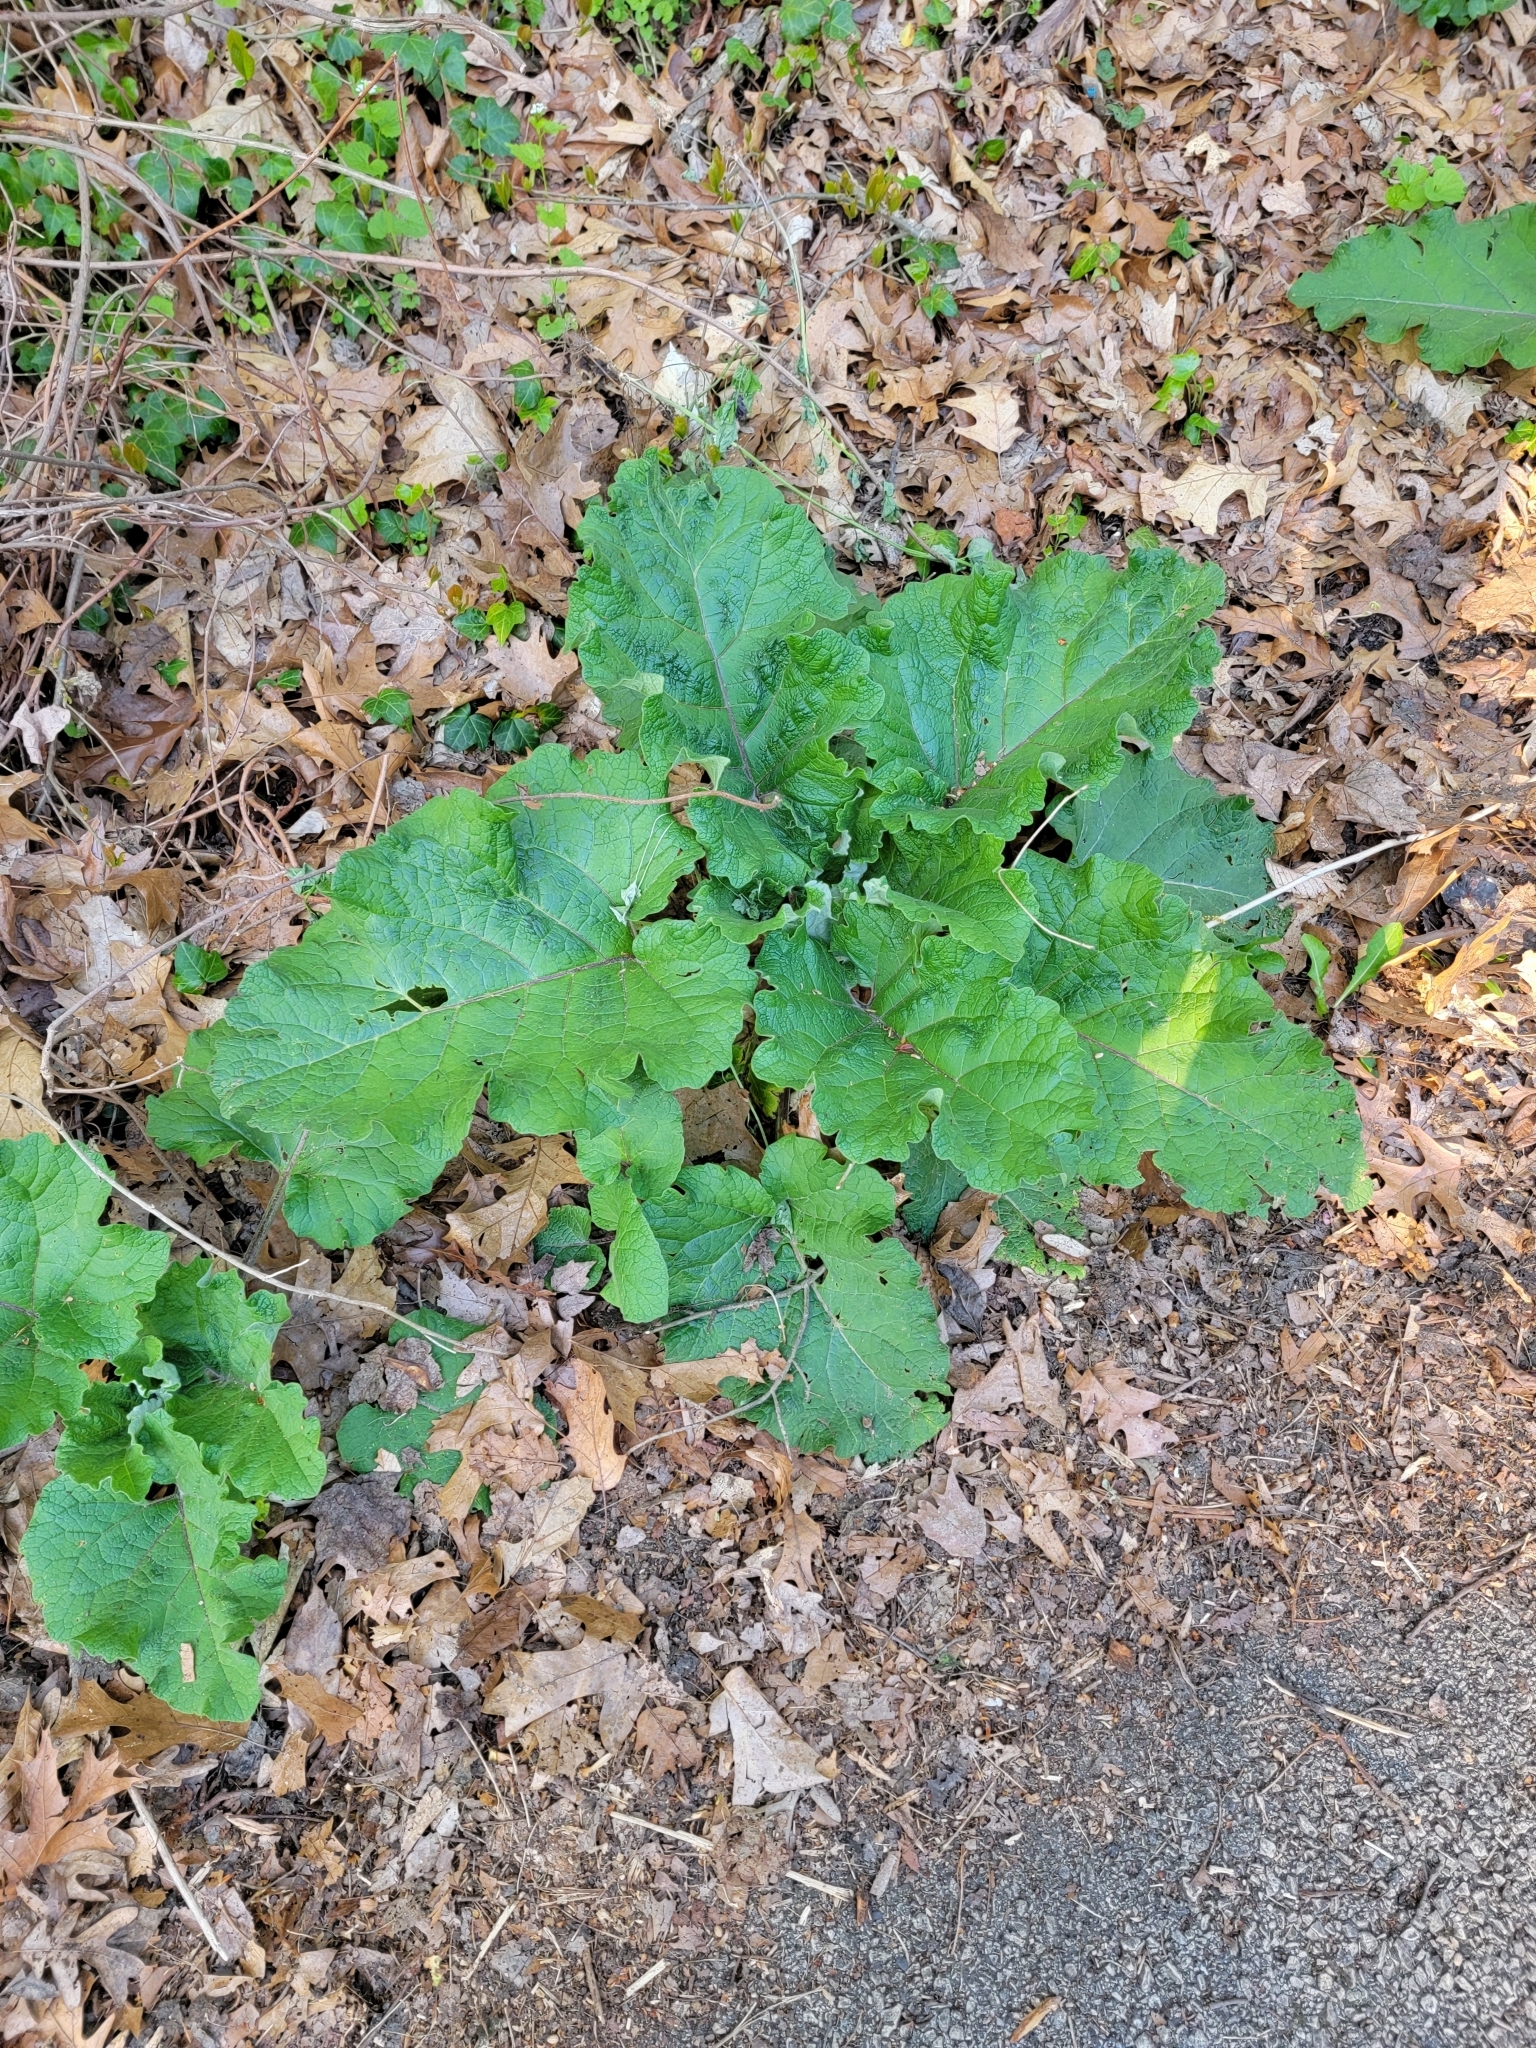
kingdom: Plantae
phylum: Tracheophyta
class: Magnoliopsida
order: Asterales
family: Asteraceae
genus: Arctium
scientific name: Arctium minus
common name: Lesser burdock
